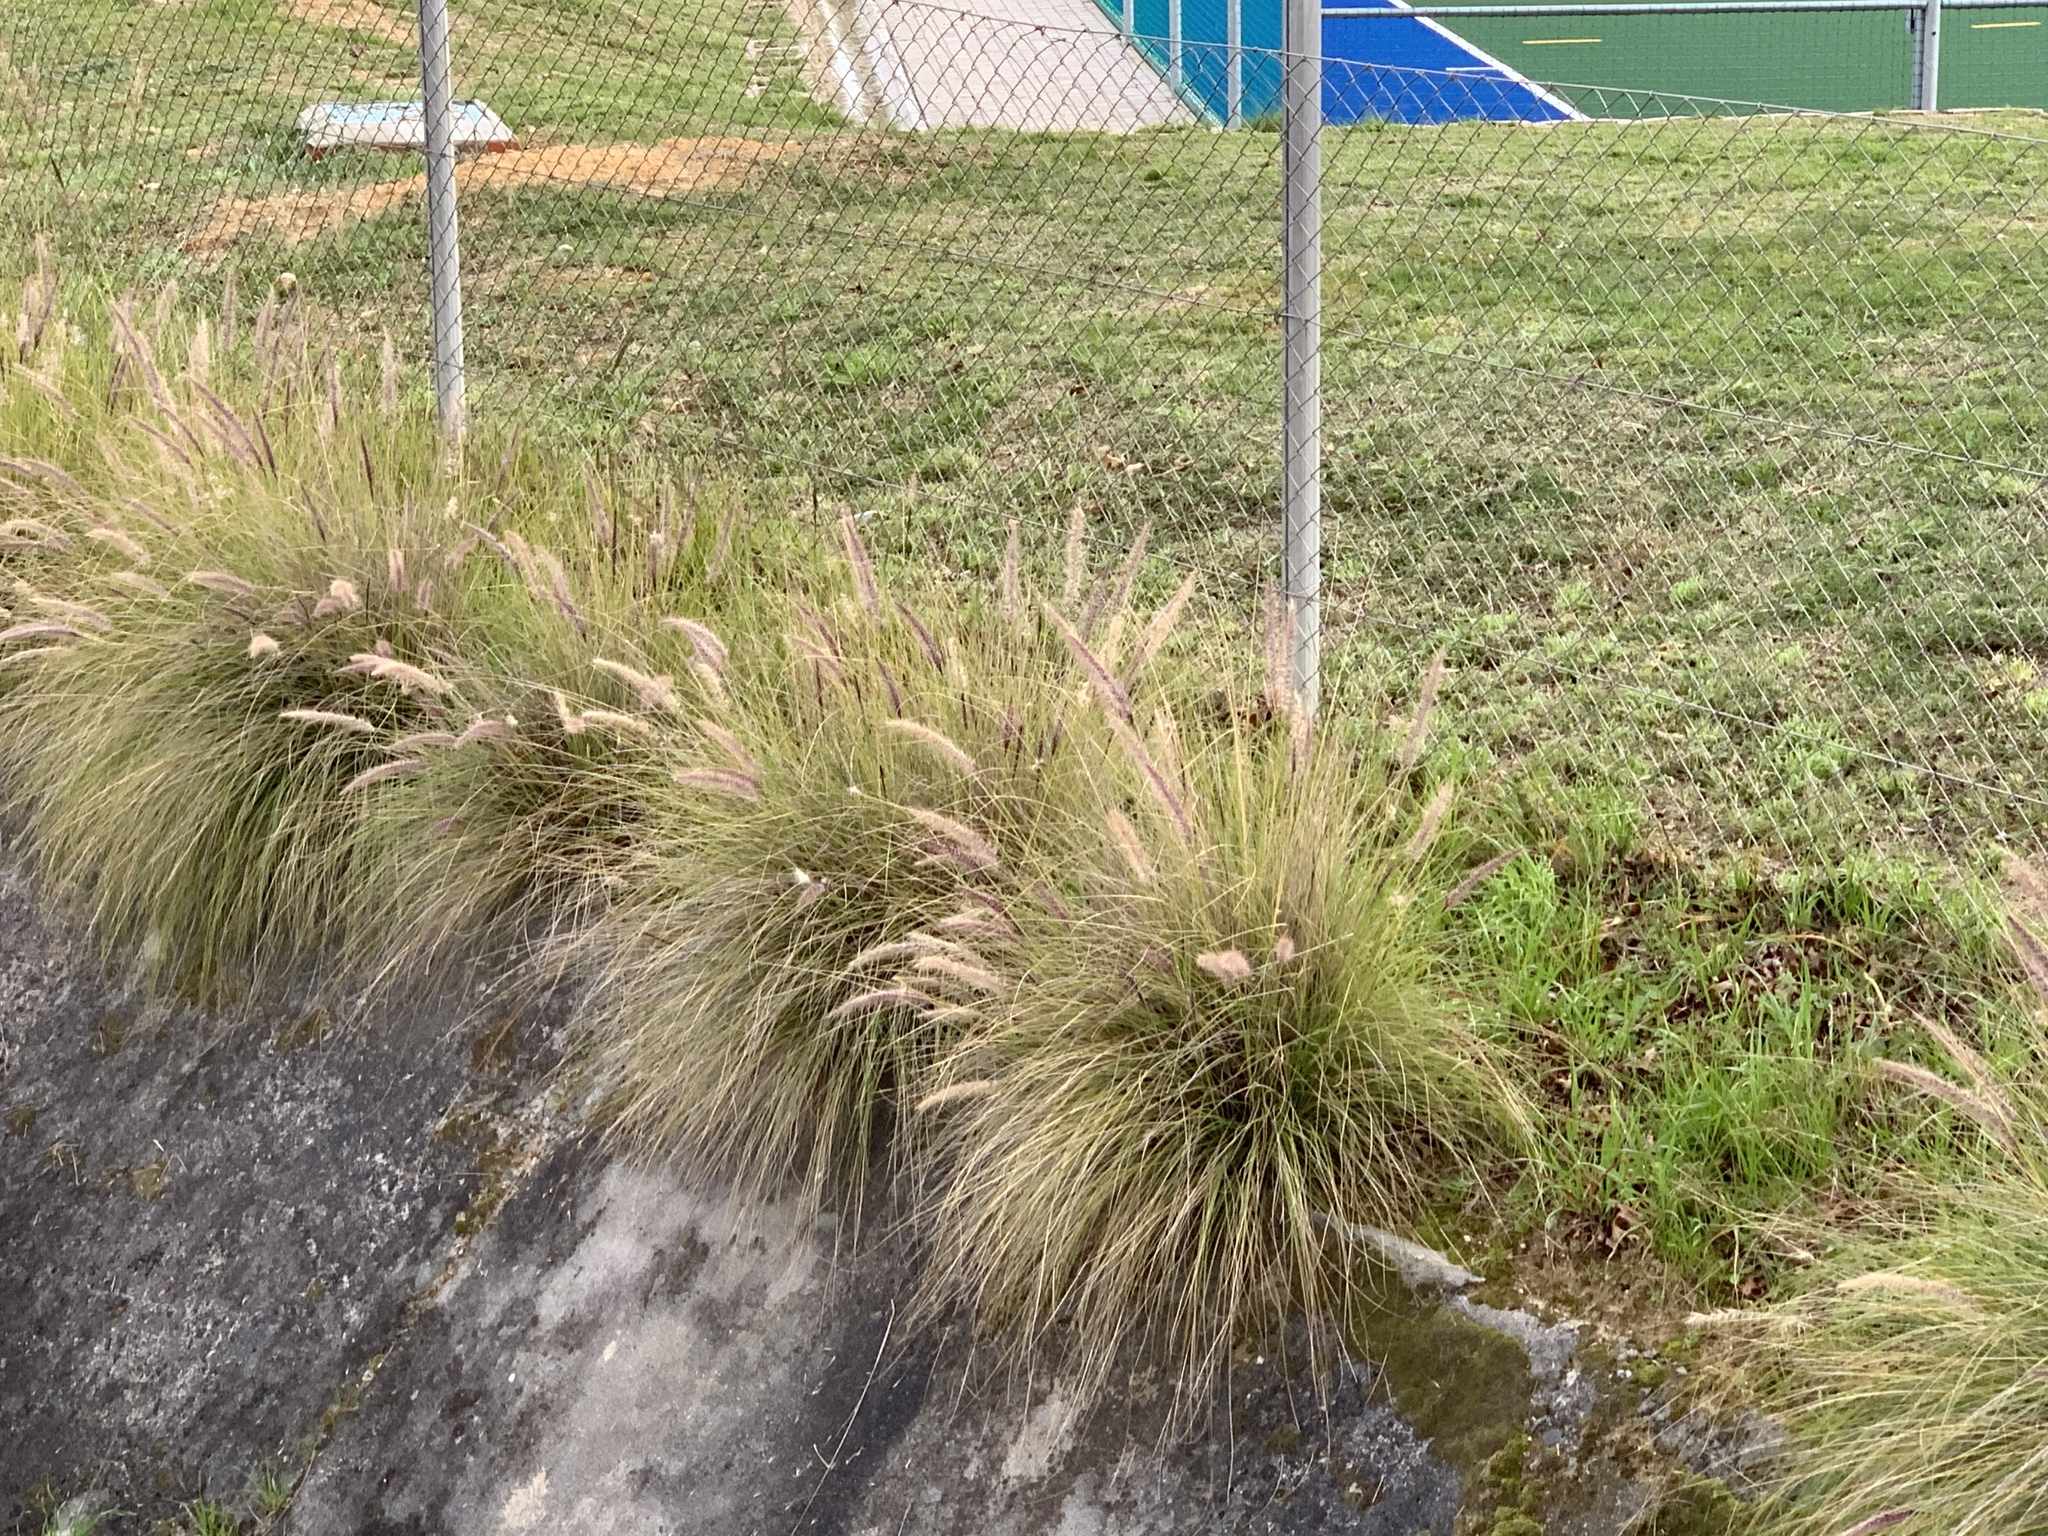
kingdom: Plantae
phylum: Tracheophyta
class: Liliopsida
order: Poales
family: Poaceae
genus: Cenchrus
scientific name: Cenchrus setaceus
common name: Crimson fountaingrass
